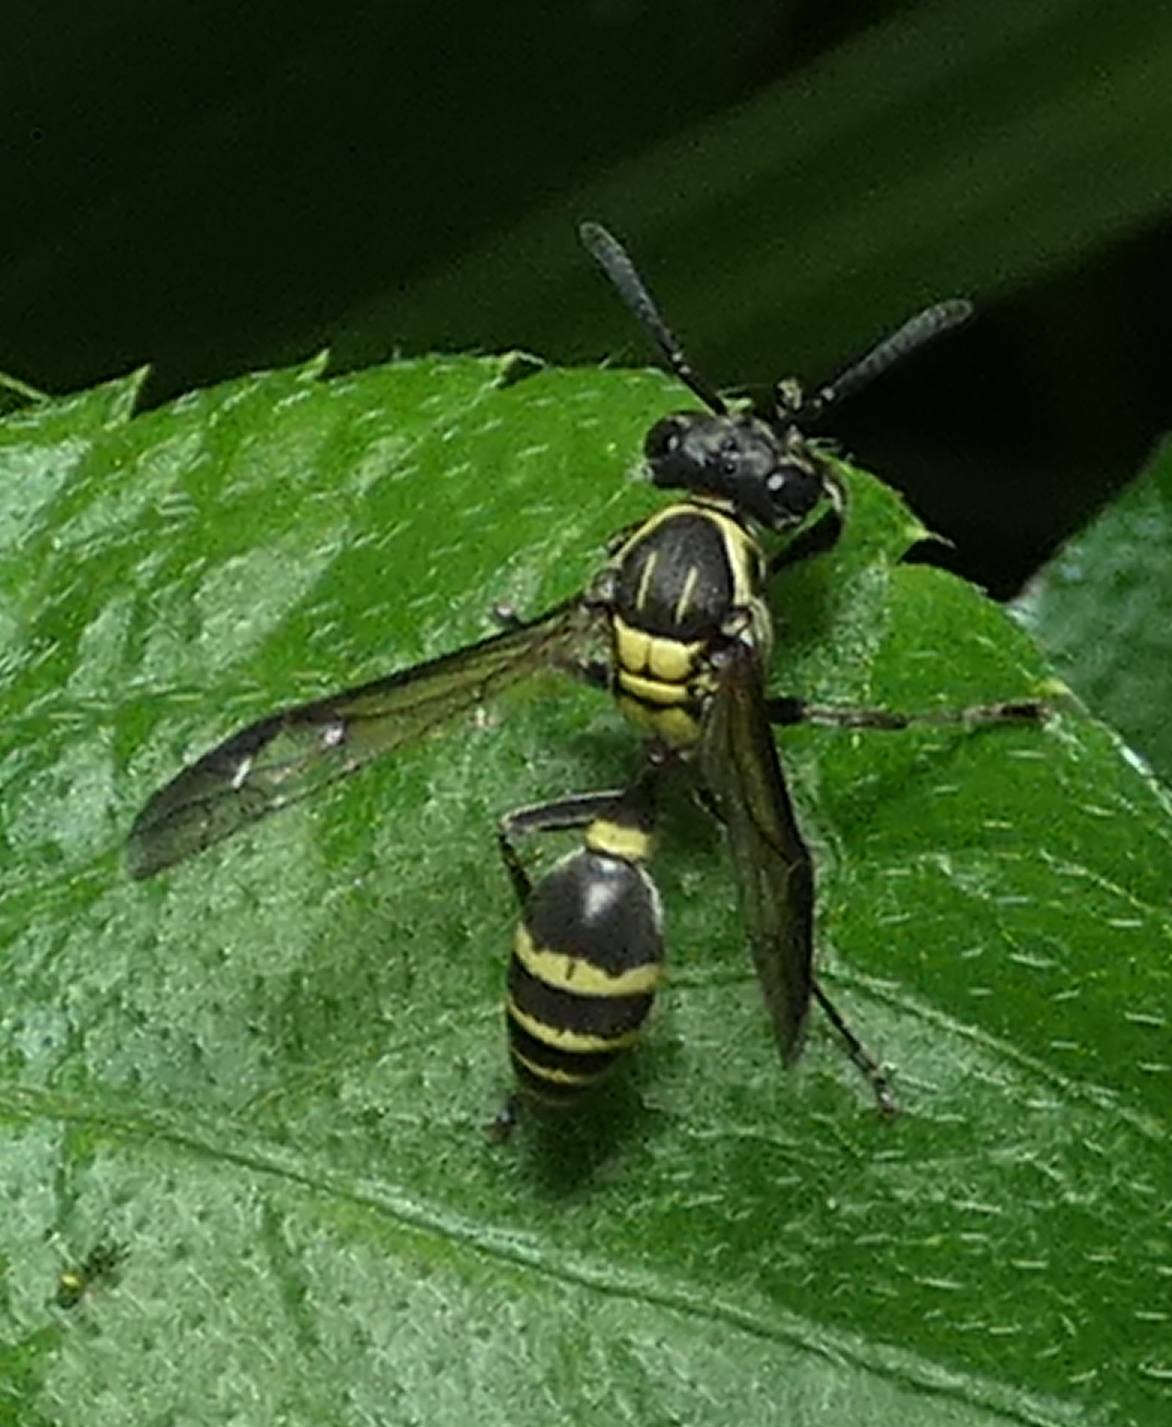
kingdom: Animalia
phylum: Arthropoda
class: Insecta
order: Hymenoptera
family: Eumenidae
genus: Polybia
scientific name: Polybia occidentalis
